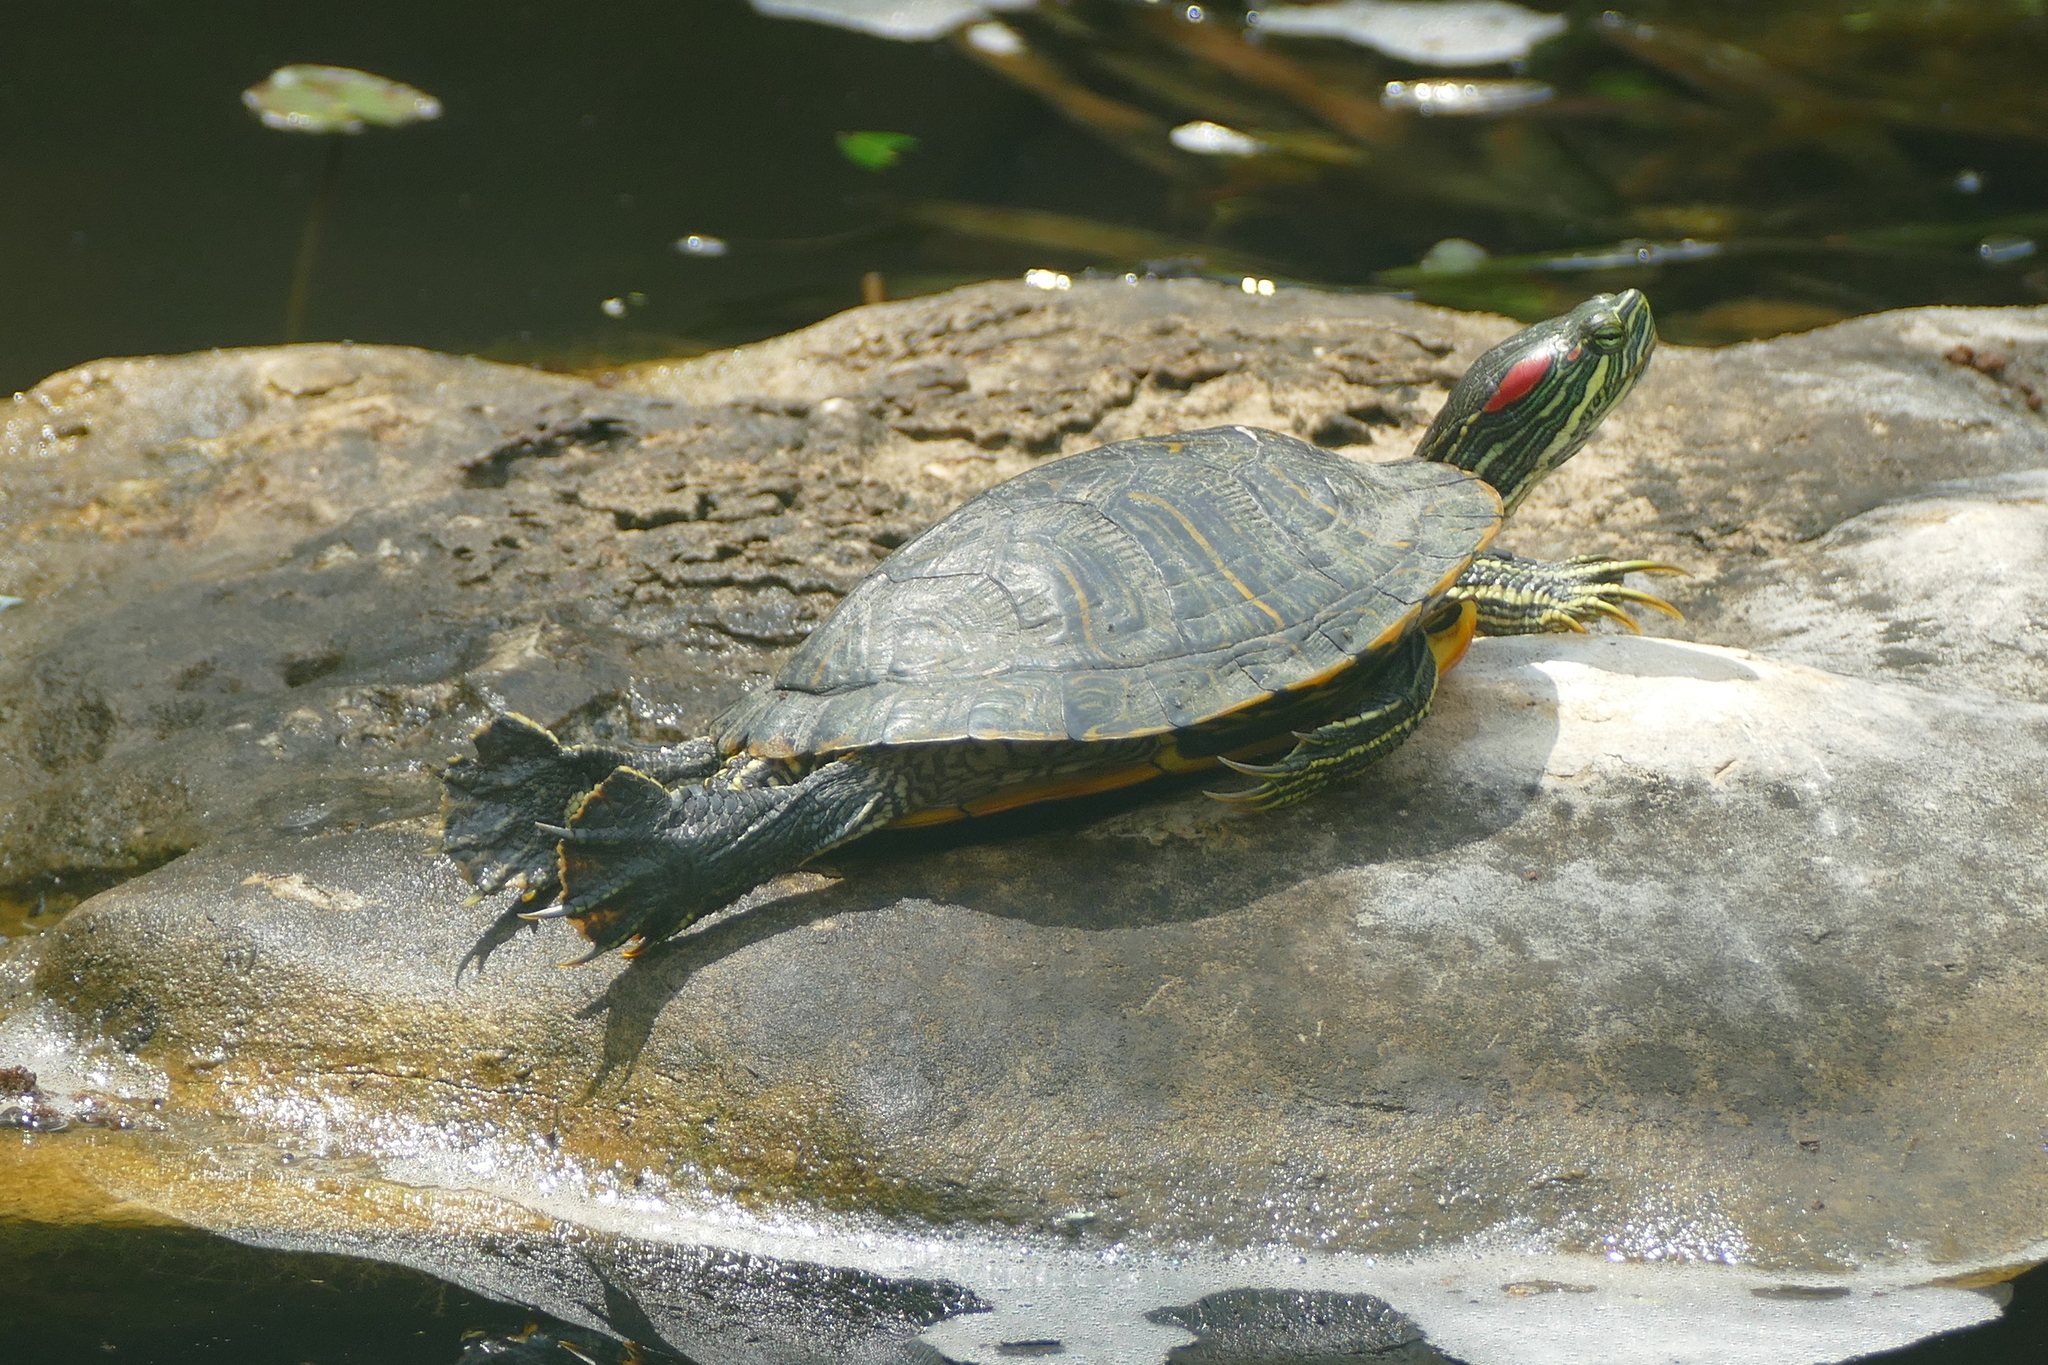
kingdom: Animalia
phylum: Chordata
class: Testudines
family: Emydidae
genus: Trachemys
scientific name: Trachemys scripta
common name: Slider
